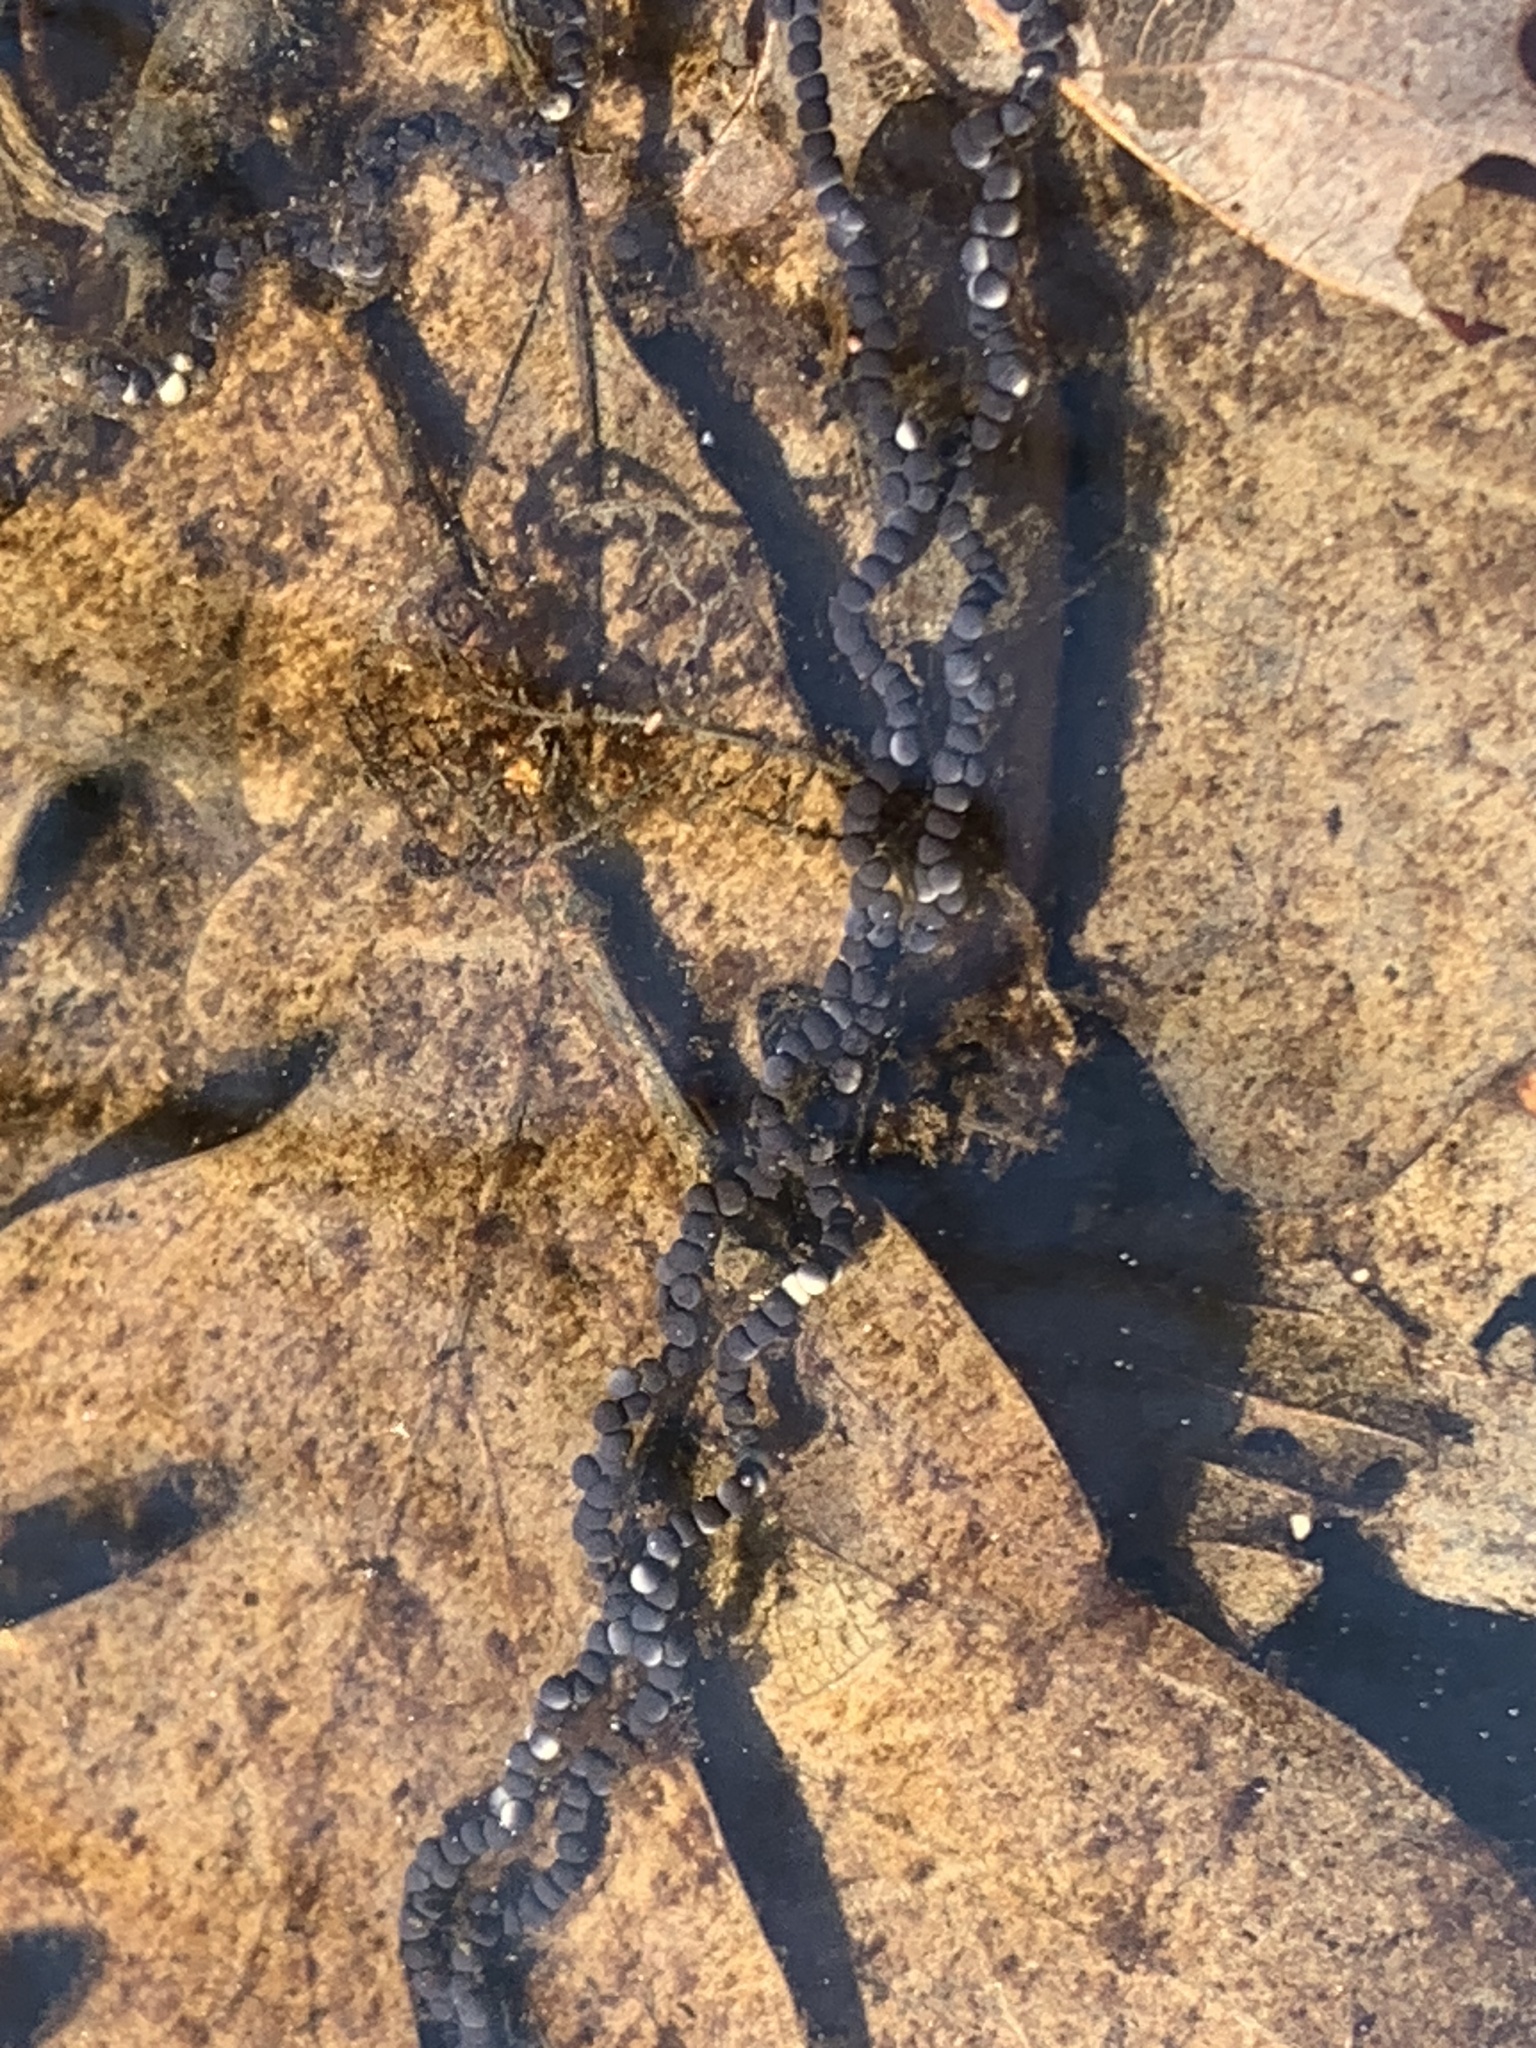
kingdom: Animalia
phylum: Chordata
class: Amphibia
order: Anura
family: Bufonidae
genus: Anaxyrus
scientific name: Anaxyrus americanus
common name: American toad
